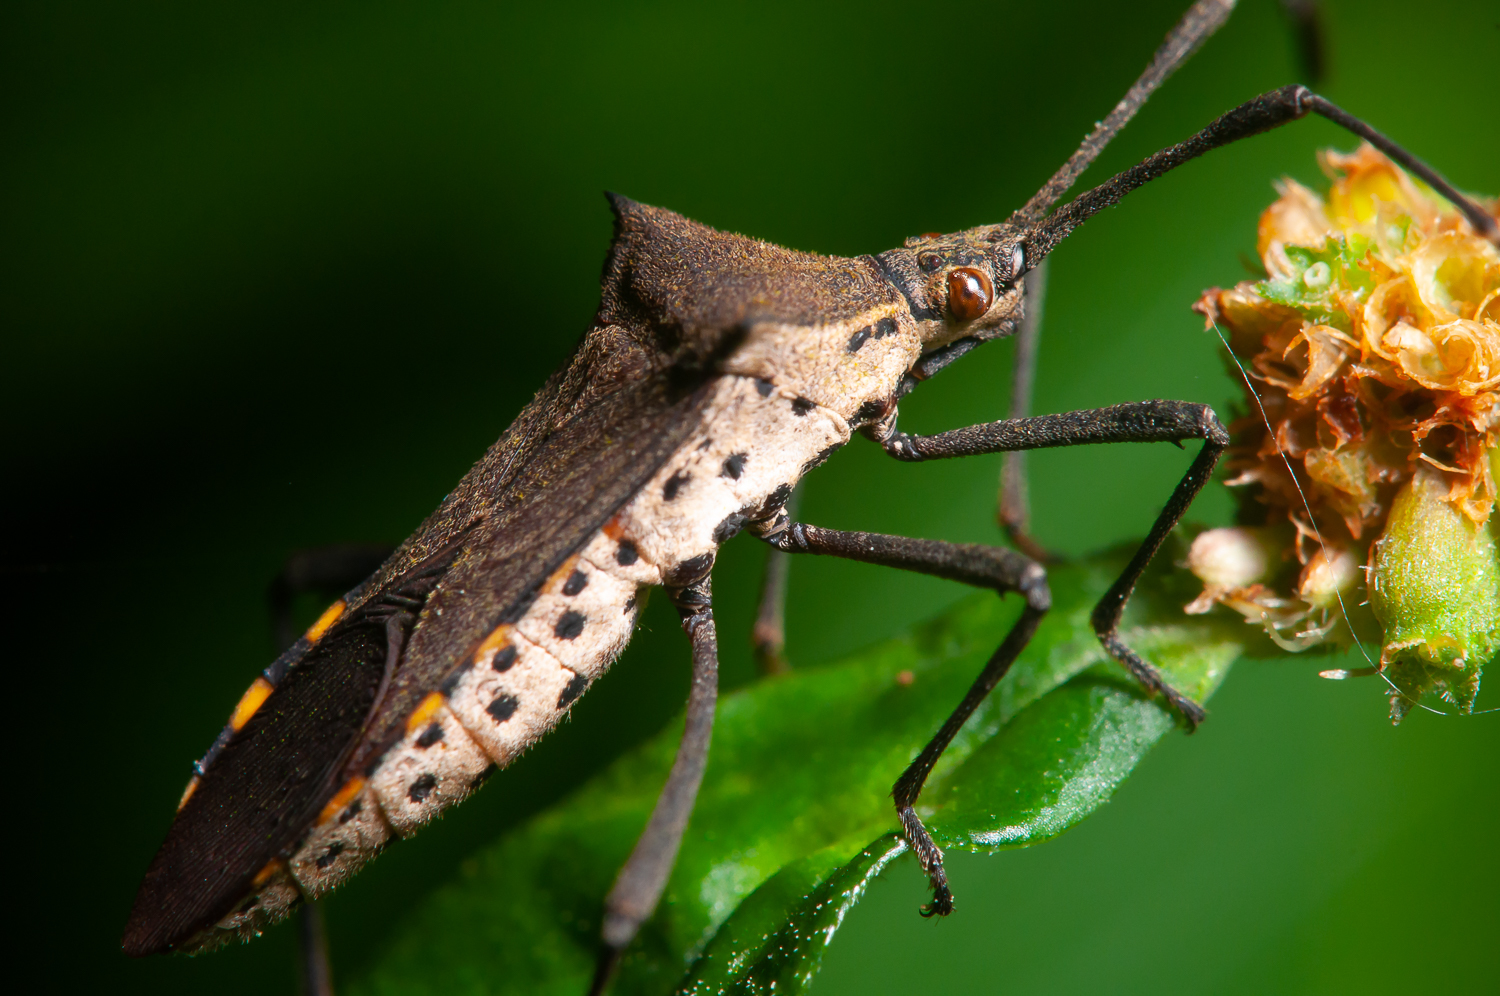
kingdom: Animalia
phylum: Arthropoda
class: Insecta
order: Hemiptera
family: Coreidae
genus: Chariesterus
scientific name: Chariesterus pardalinus
